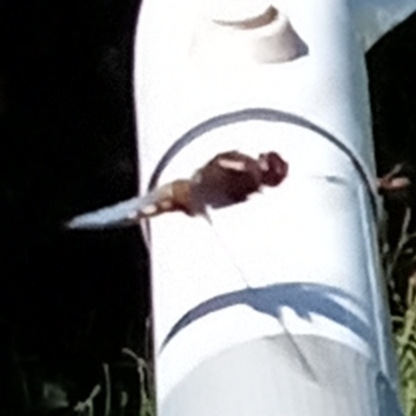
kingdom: Animalia
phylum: Arthropoda
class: Insecta
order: Odonata
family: Libellulidae
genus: Libellula
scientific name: Libellula depressa
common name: Broad-bodied chaser
